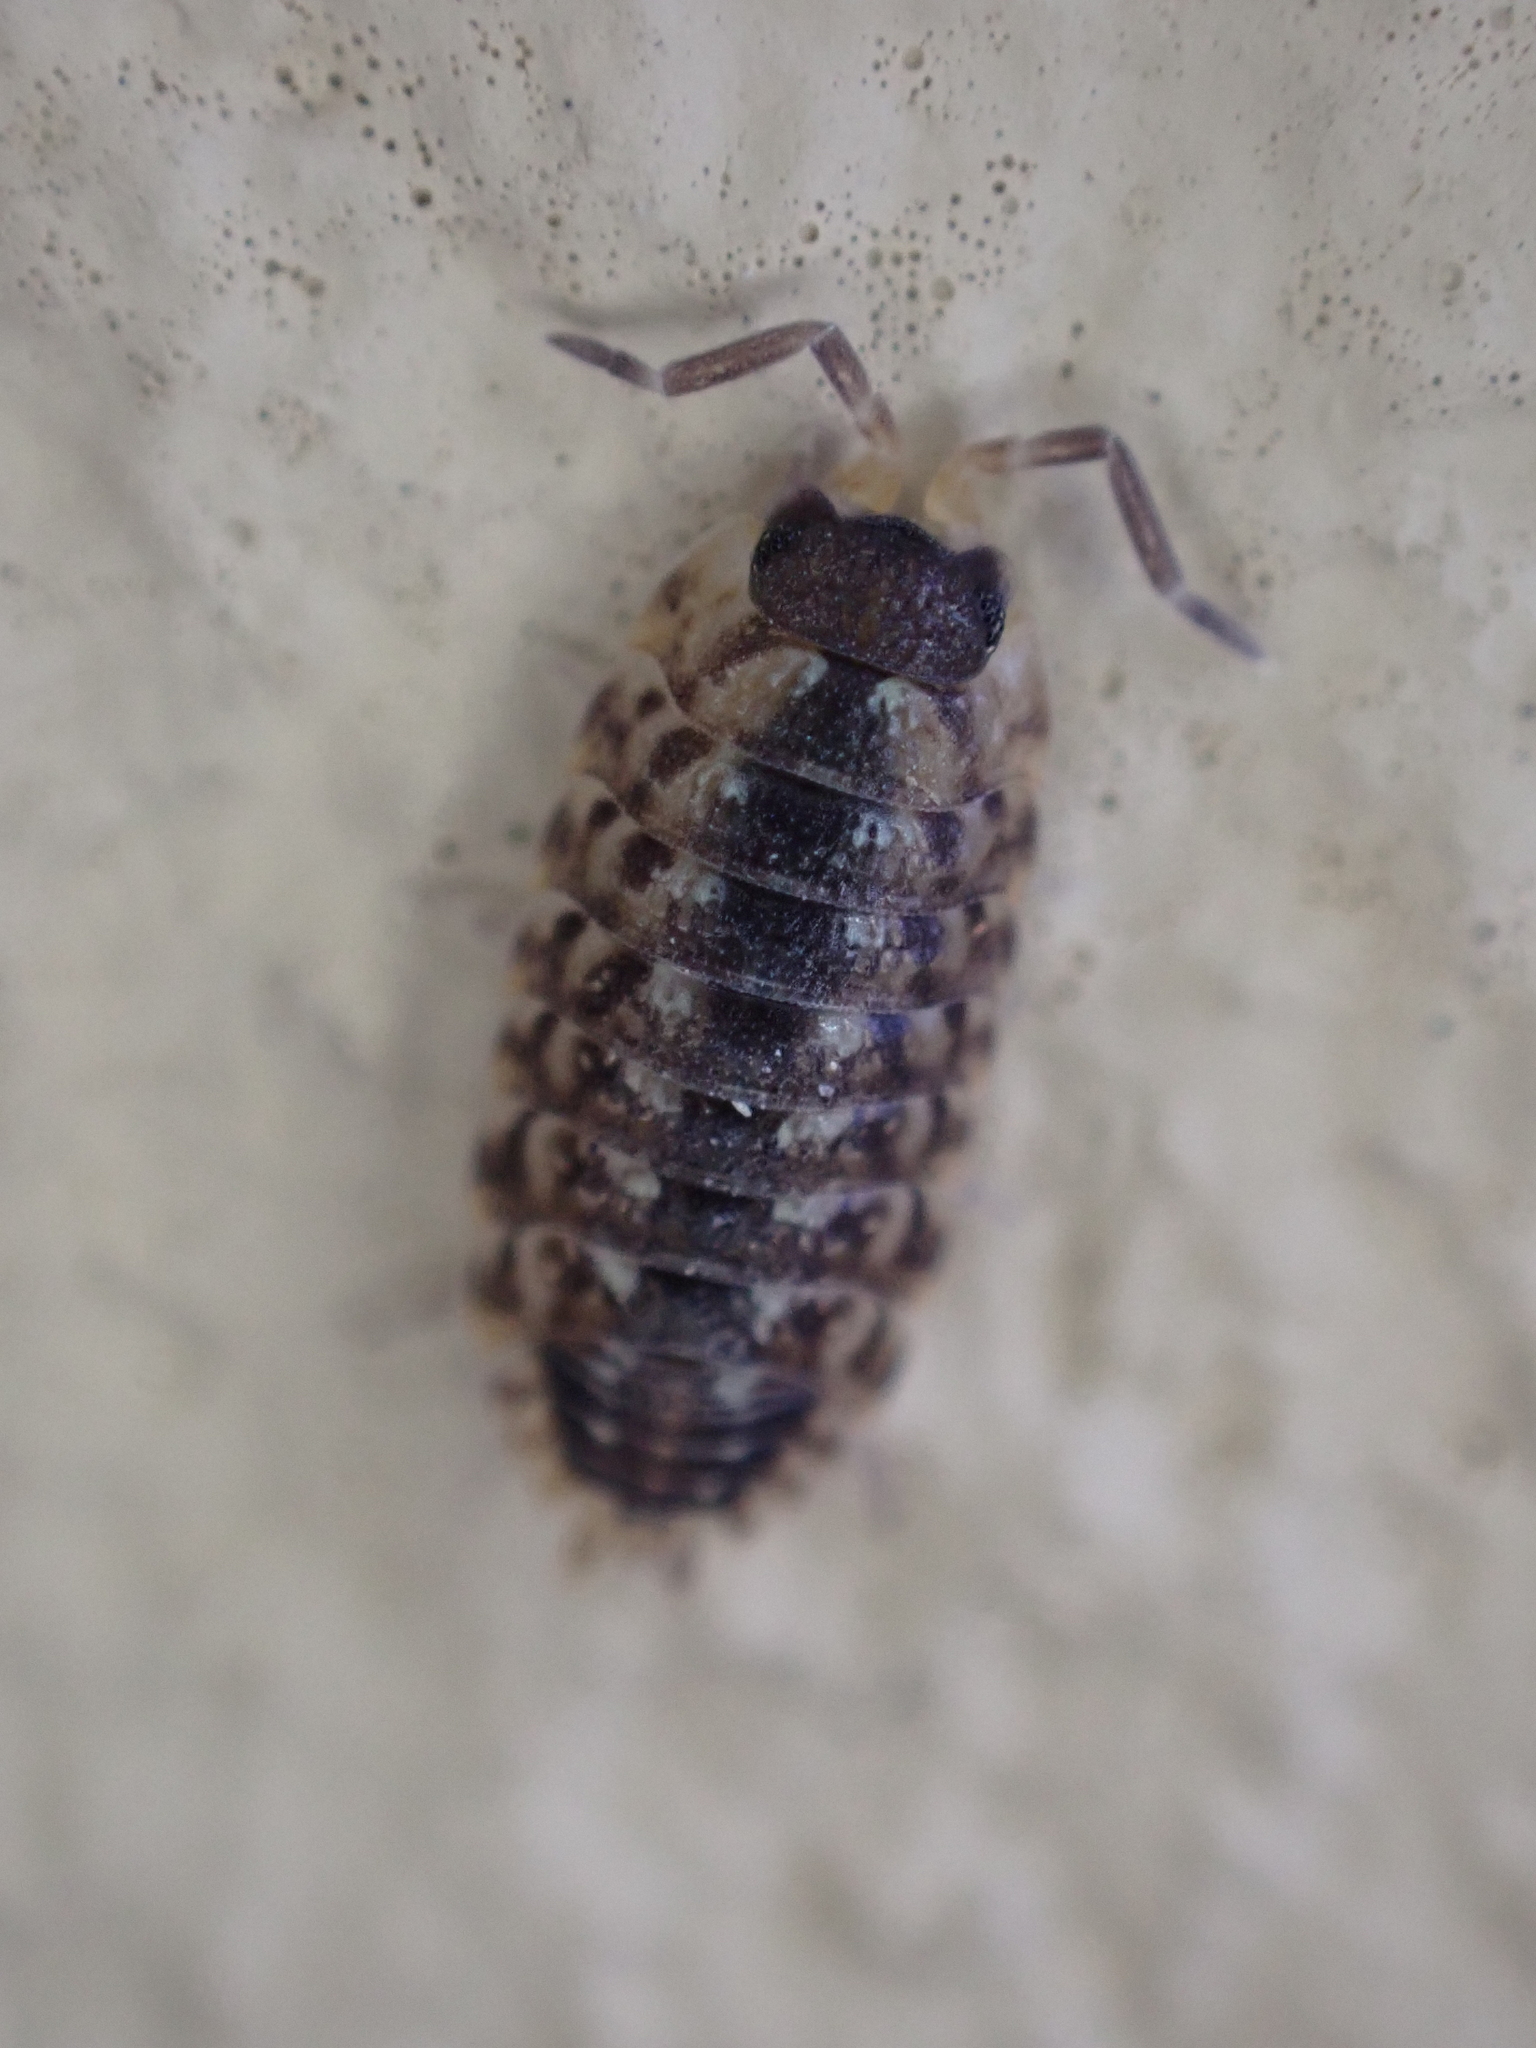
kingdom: Animalia
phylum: Arthropoda
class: Malacostraca
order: Isopoda
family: Porcellionidae
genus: Porcellio
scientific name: Porcellio spinicornis
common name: Painted woodlouse
